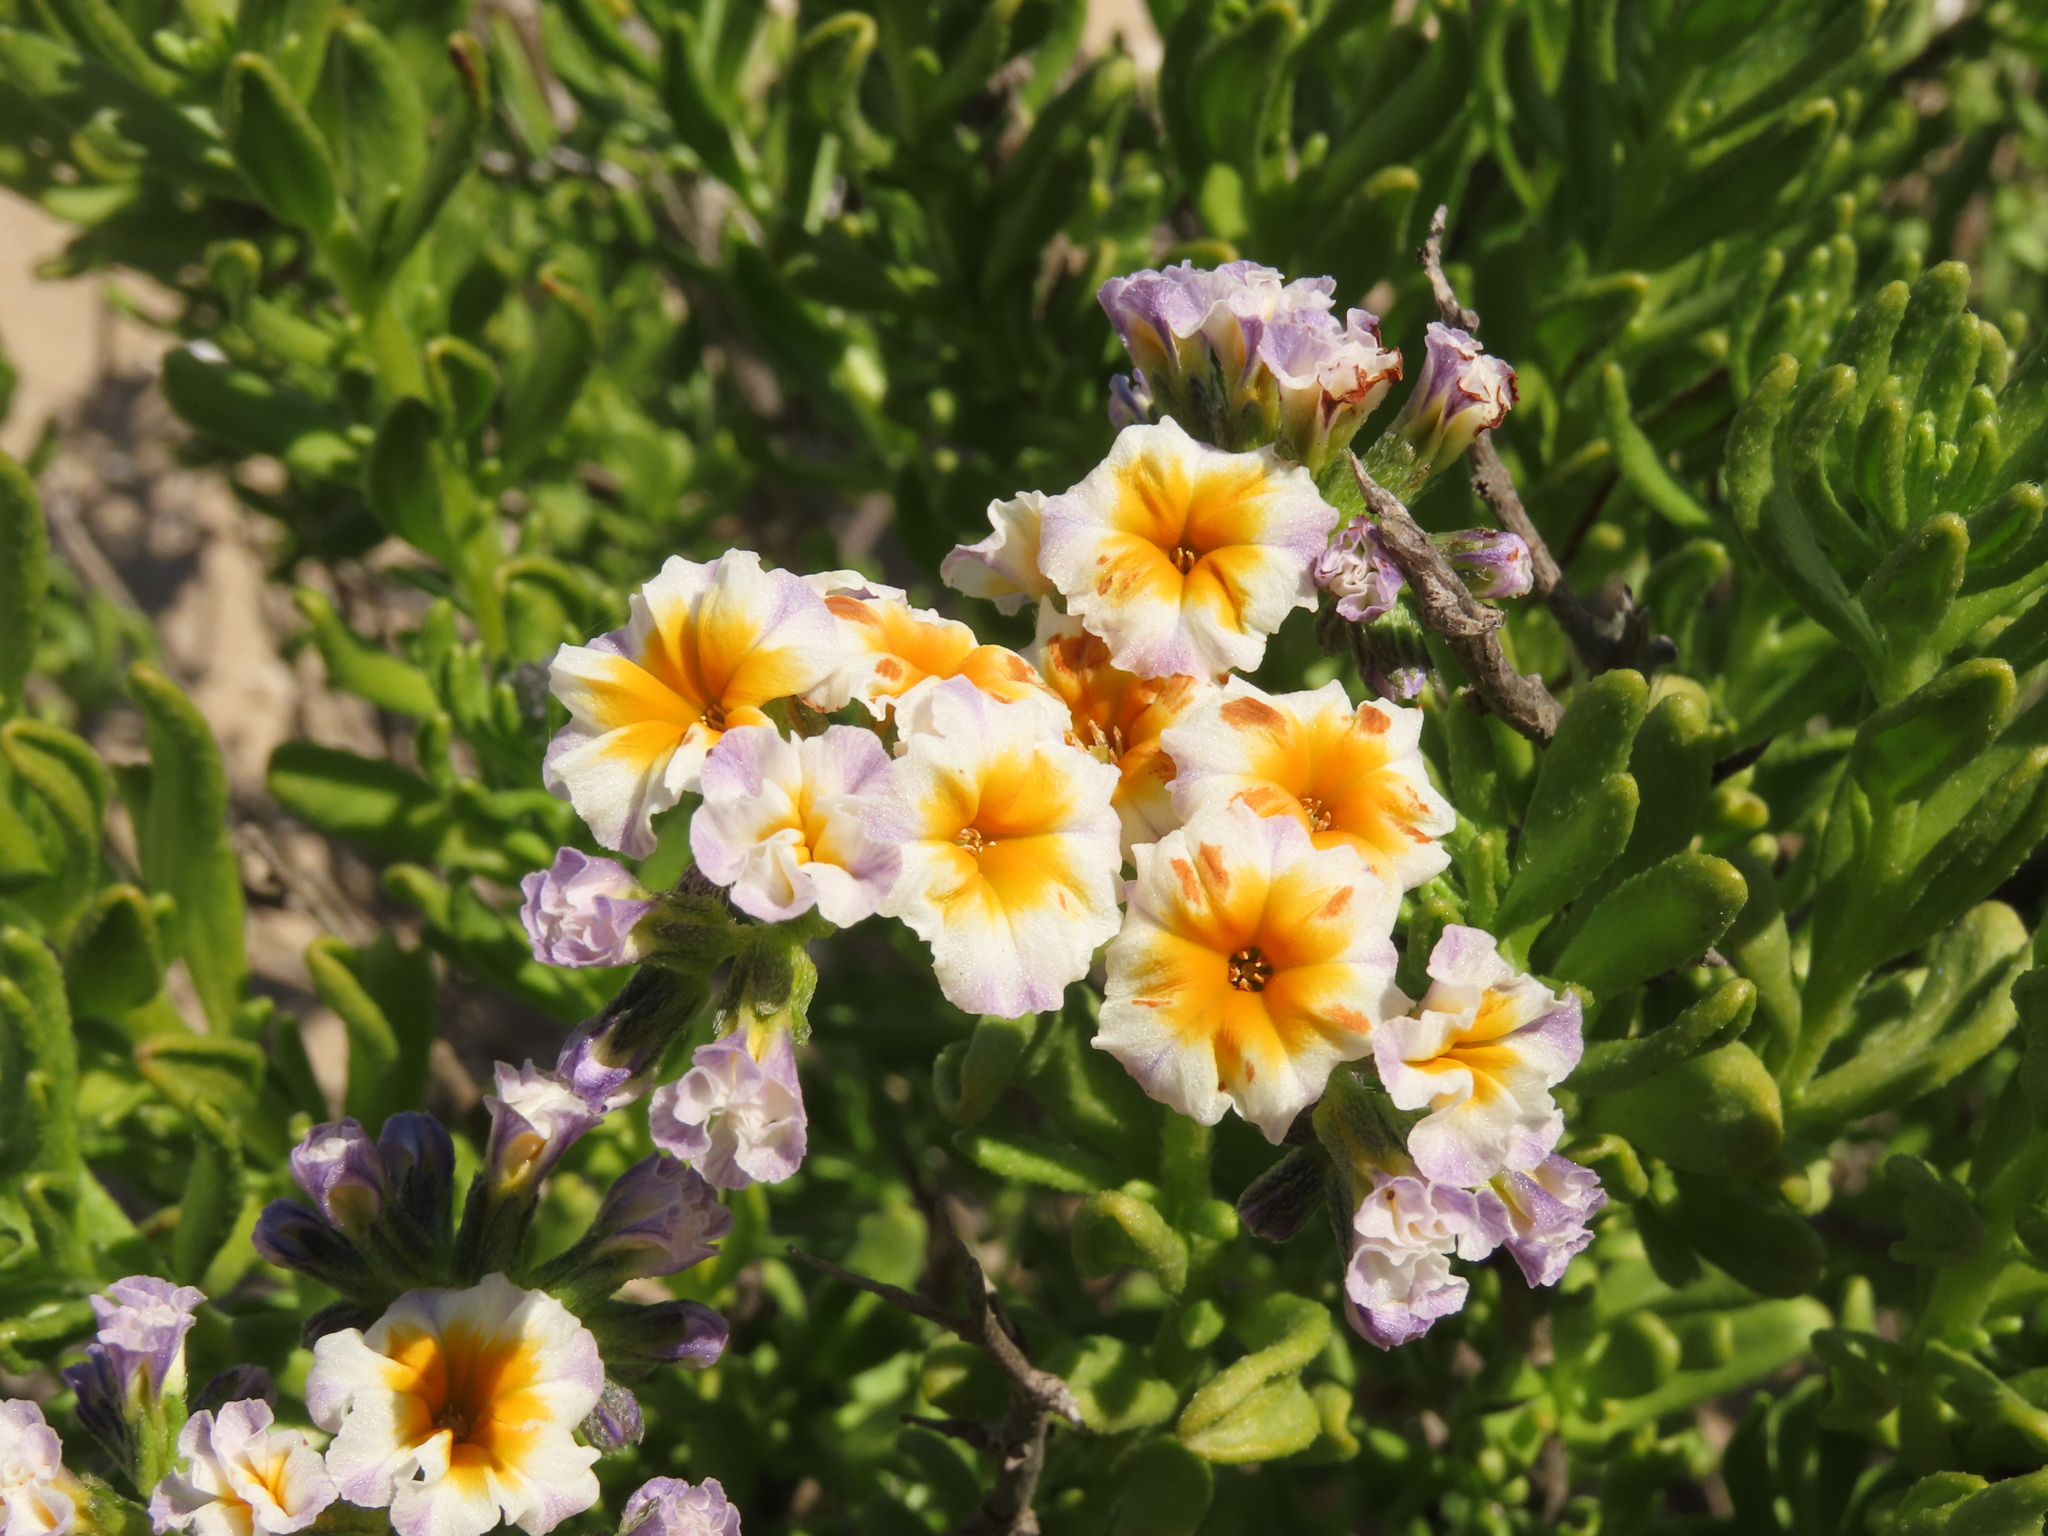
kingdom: Plantae
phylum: Tracheophyta
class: Magnoliopsida
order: Boraginales
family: Heliotropiaceae
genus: Heliotropium
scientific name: Heliotropium floridum
